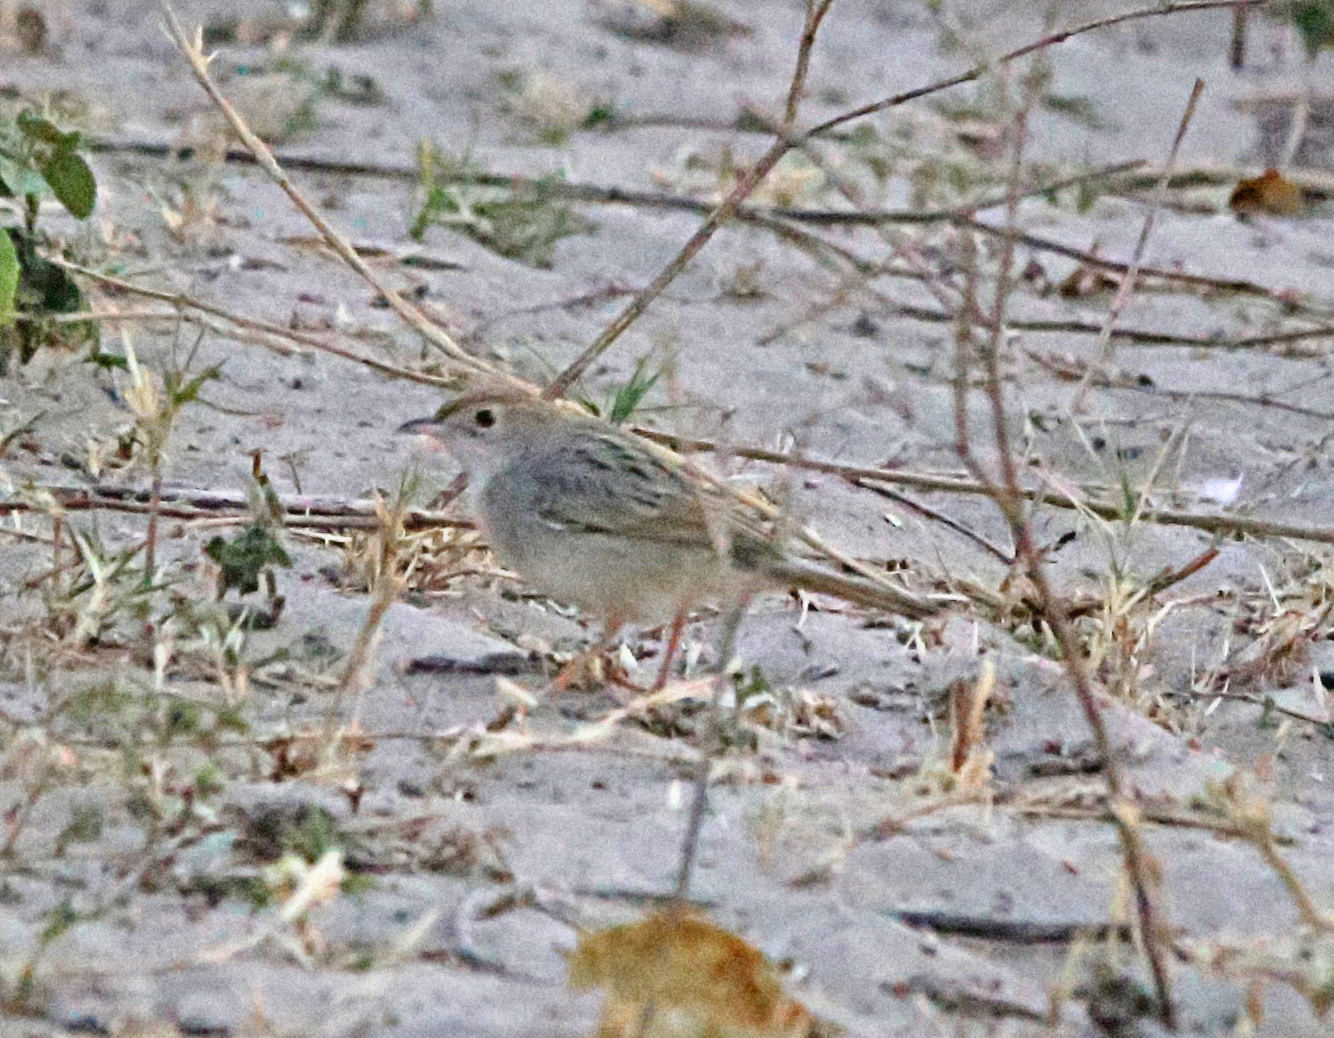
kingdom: Animalia
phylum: Chordata
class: Aves
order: Passeriformes
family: Cisticolidae
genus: Cisticola
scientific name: Cisticola chiniana
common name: Rattling cisticola
